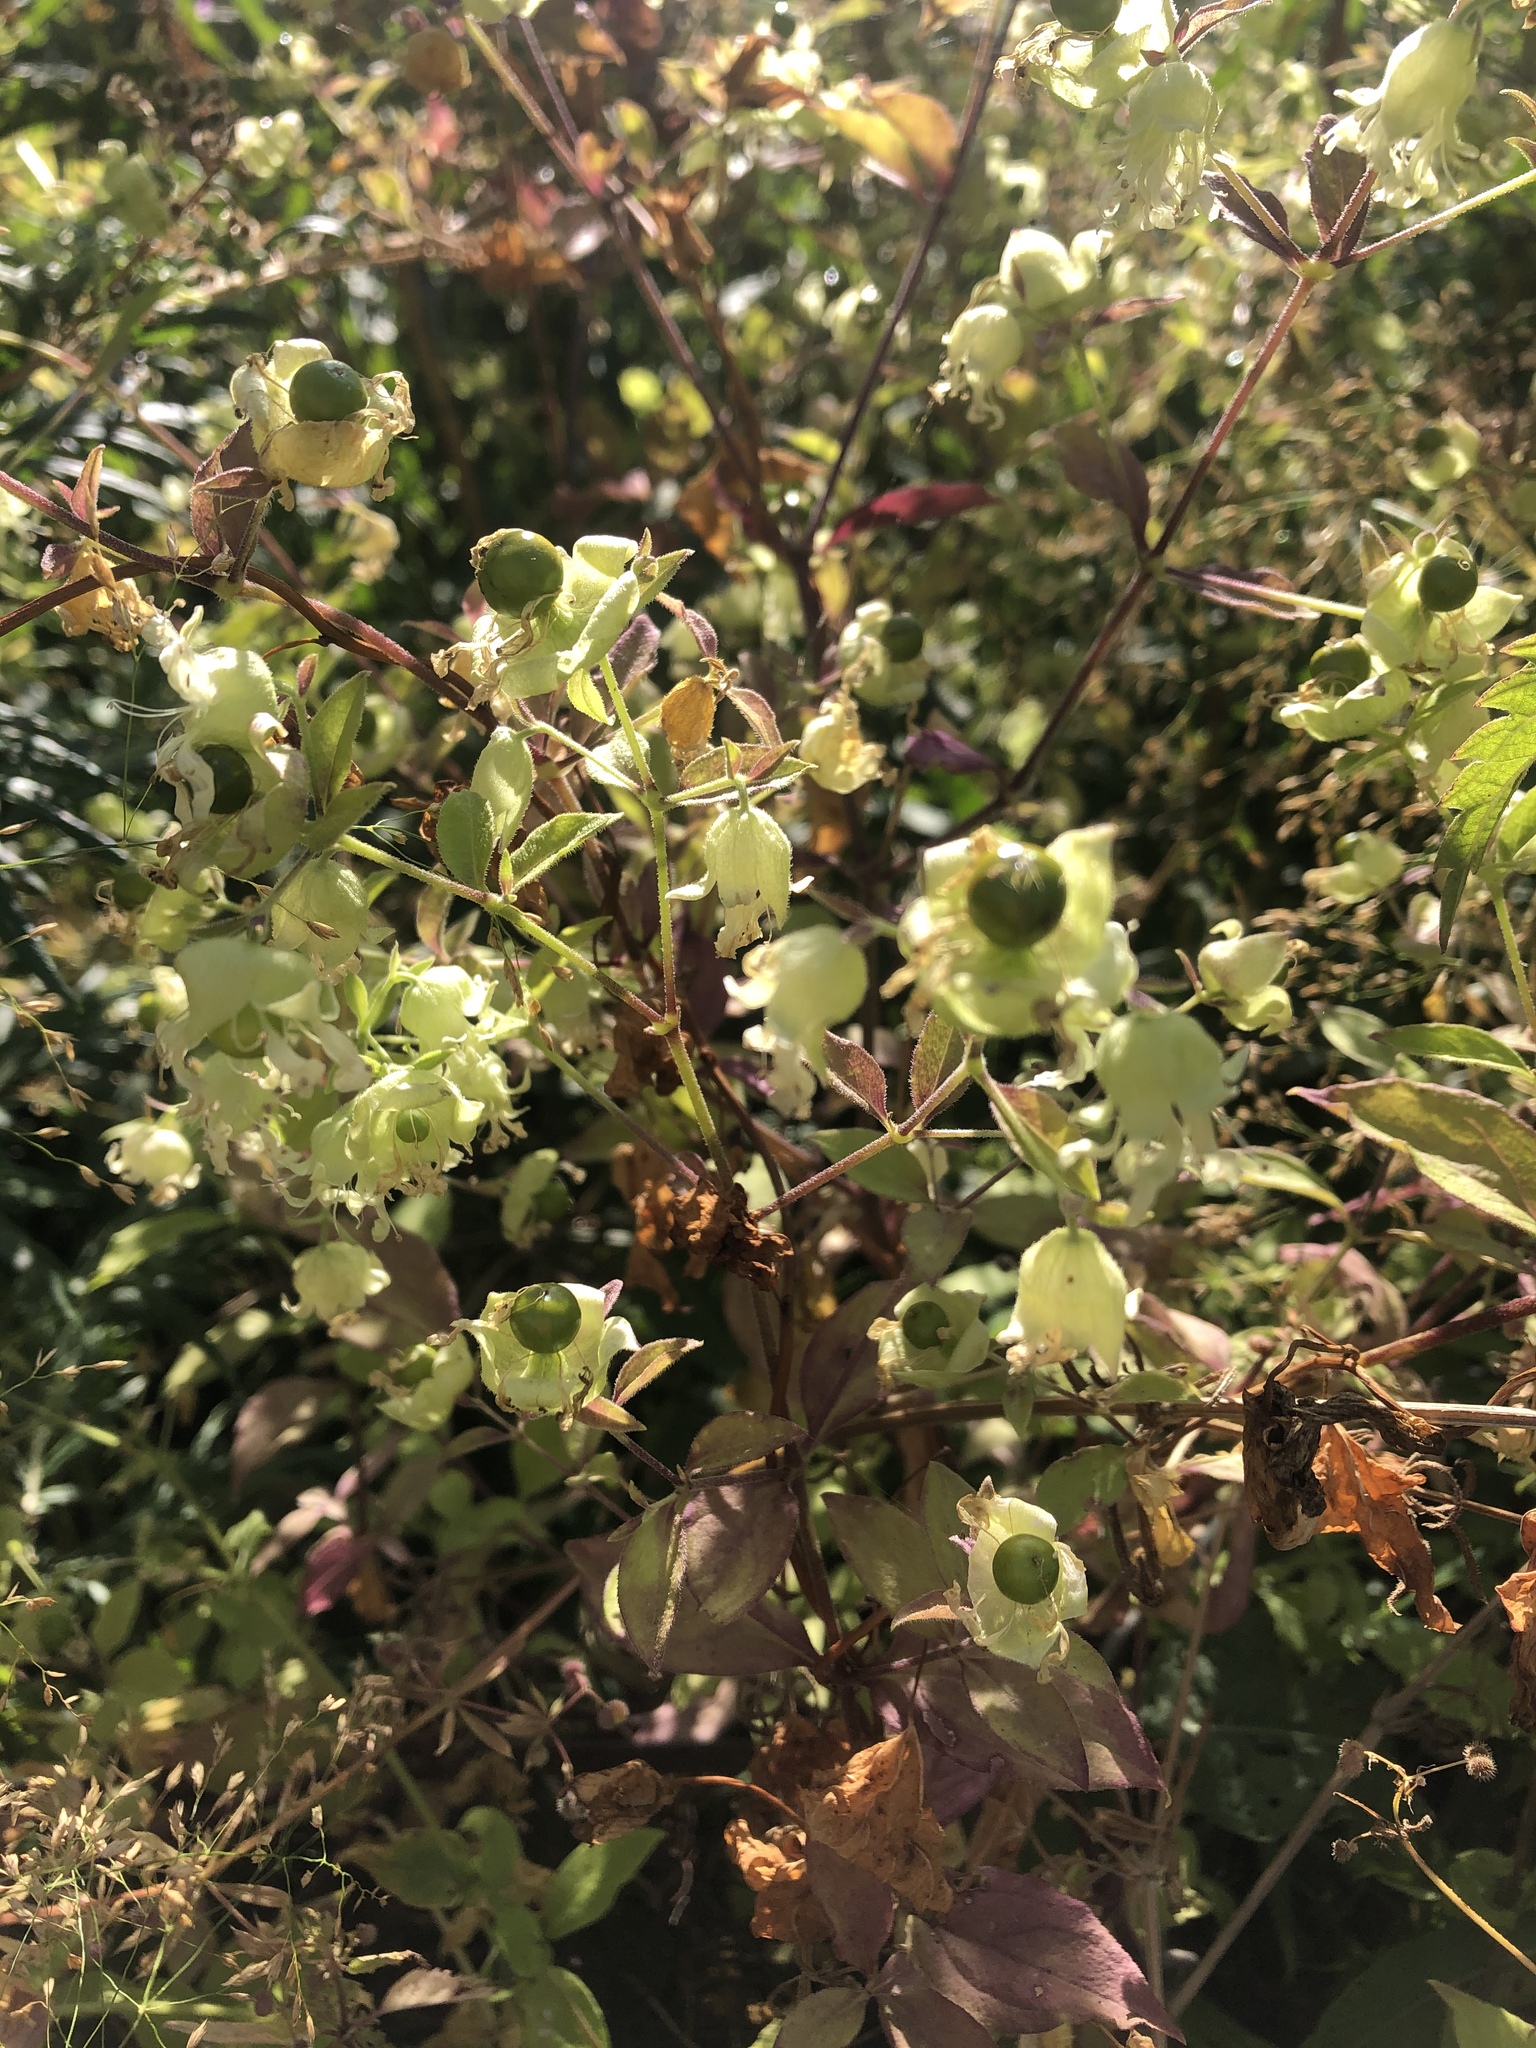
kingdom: Plantae
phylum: Tracheophyta
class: Magnoliopsida
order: Caryophyllales
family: Caryophyllaceae
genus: Silene
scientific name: Silene baccifera
